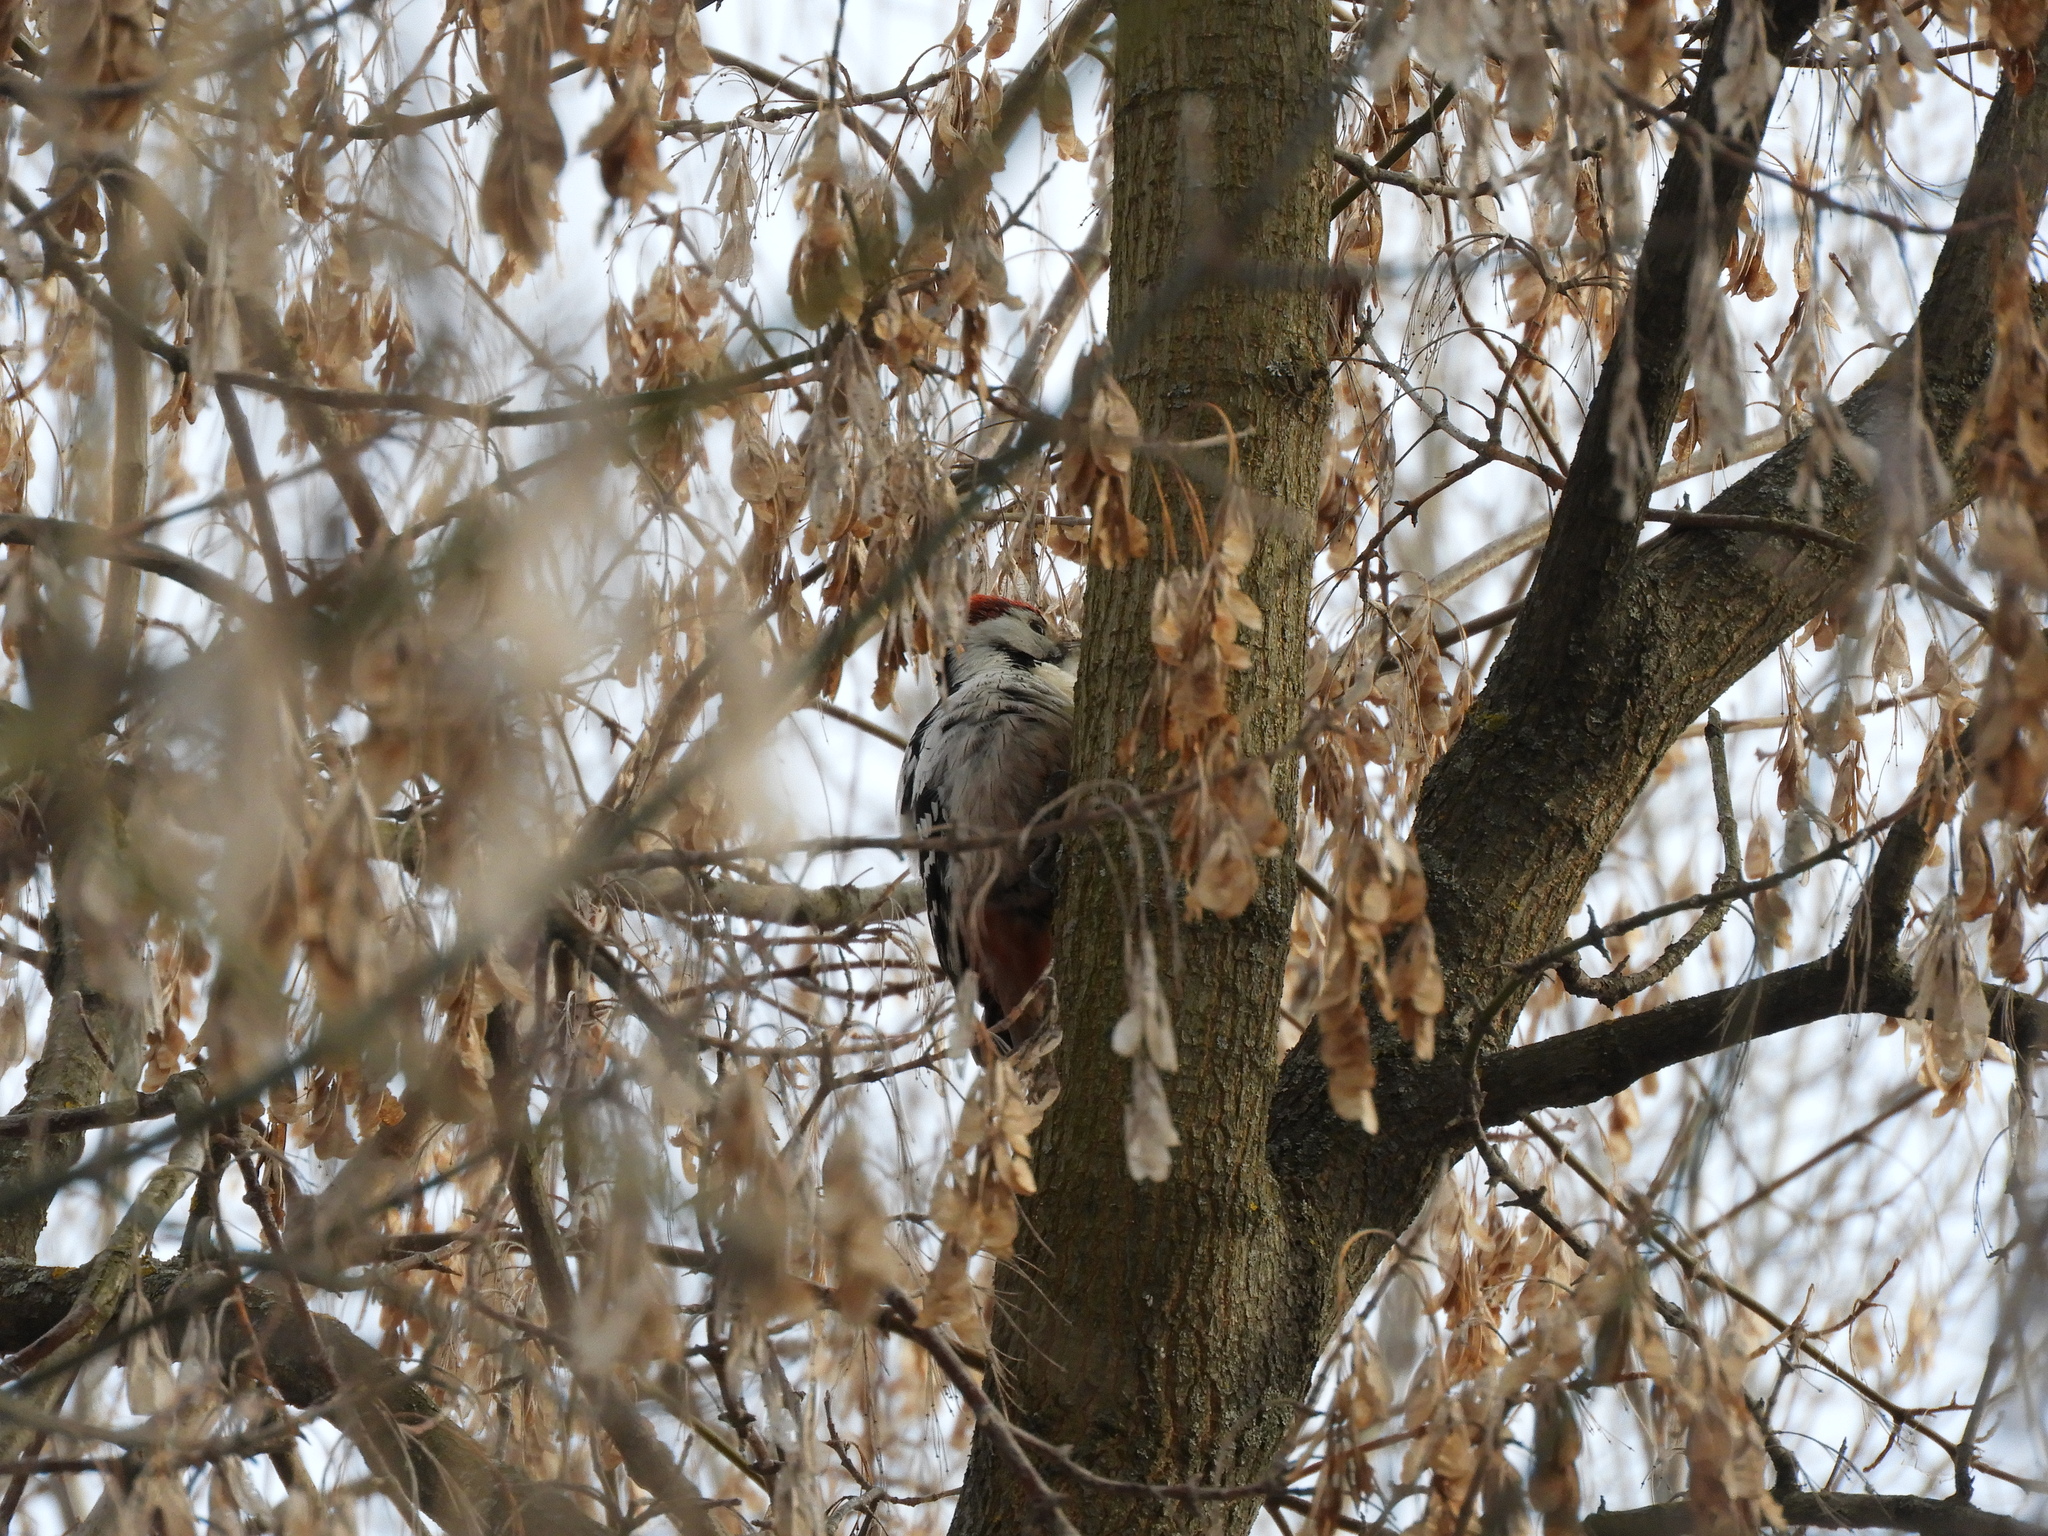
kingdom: Animalia
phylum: Chordata
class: Aves
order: Piciformes
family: Picidae
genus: Dendrocopos
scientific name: Dendrocopos leucotos
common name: White-backed woodpecker
